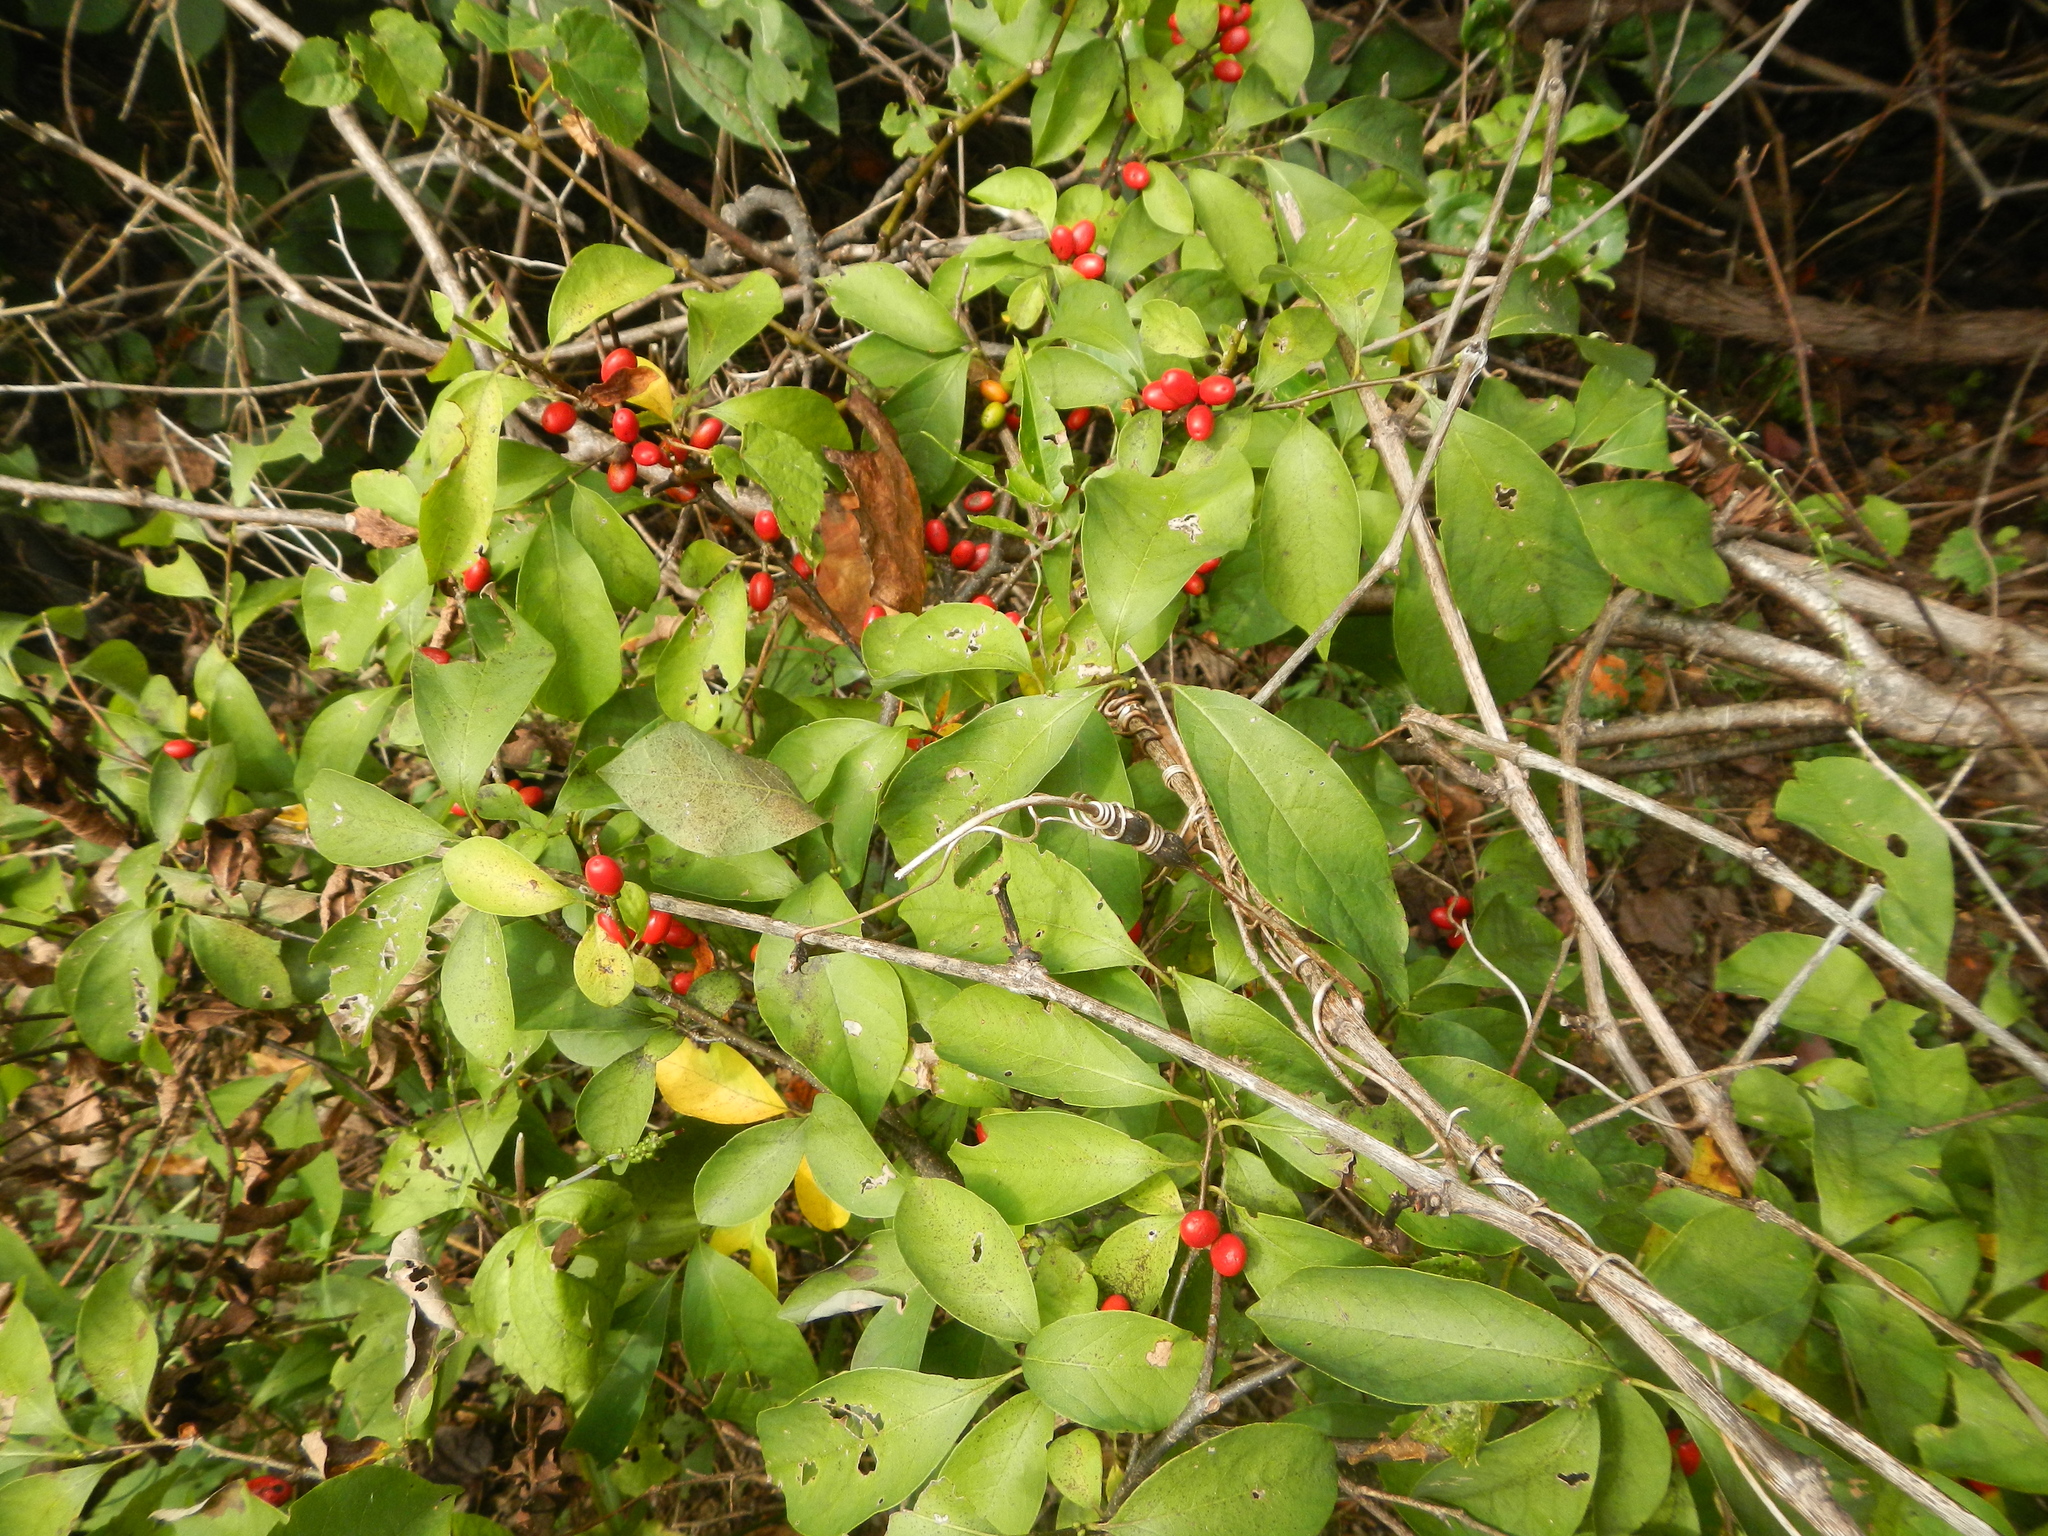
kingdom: Plantae
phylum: Tracheophyta
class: Magnoliopsida
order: Laurales
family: Lauraceae
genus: Lindera
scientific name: Lindera benzoin
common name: Spicebush
